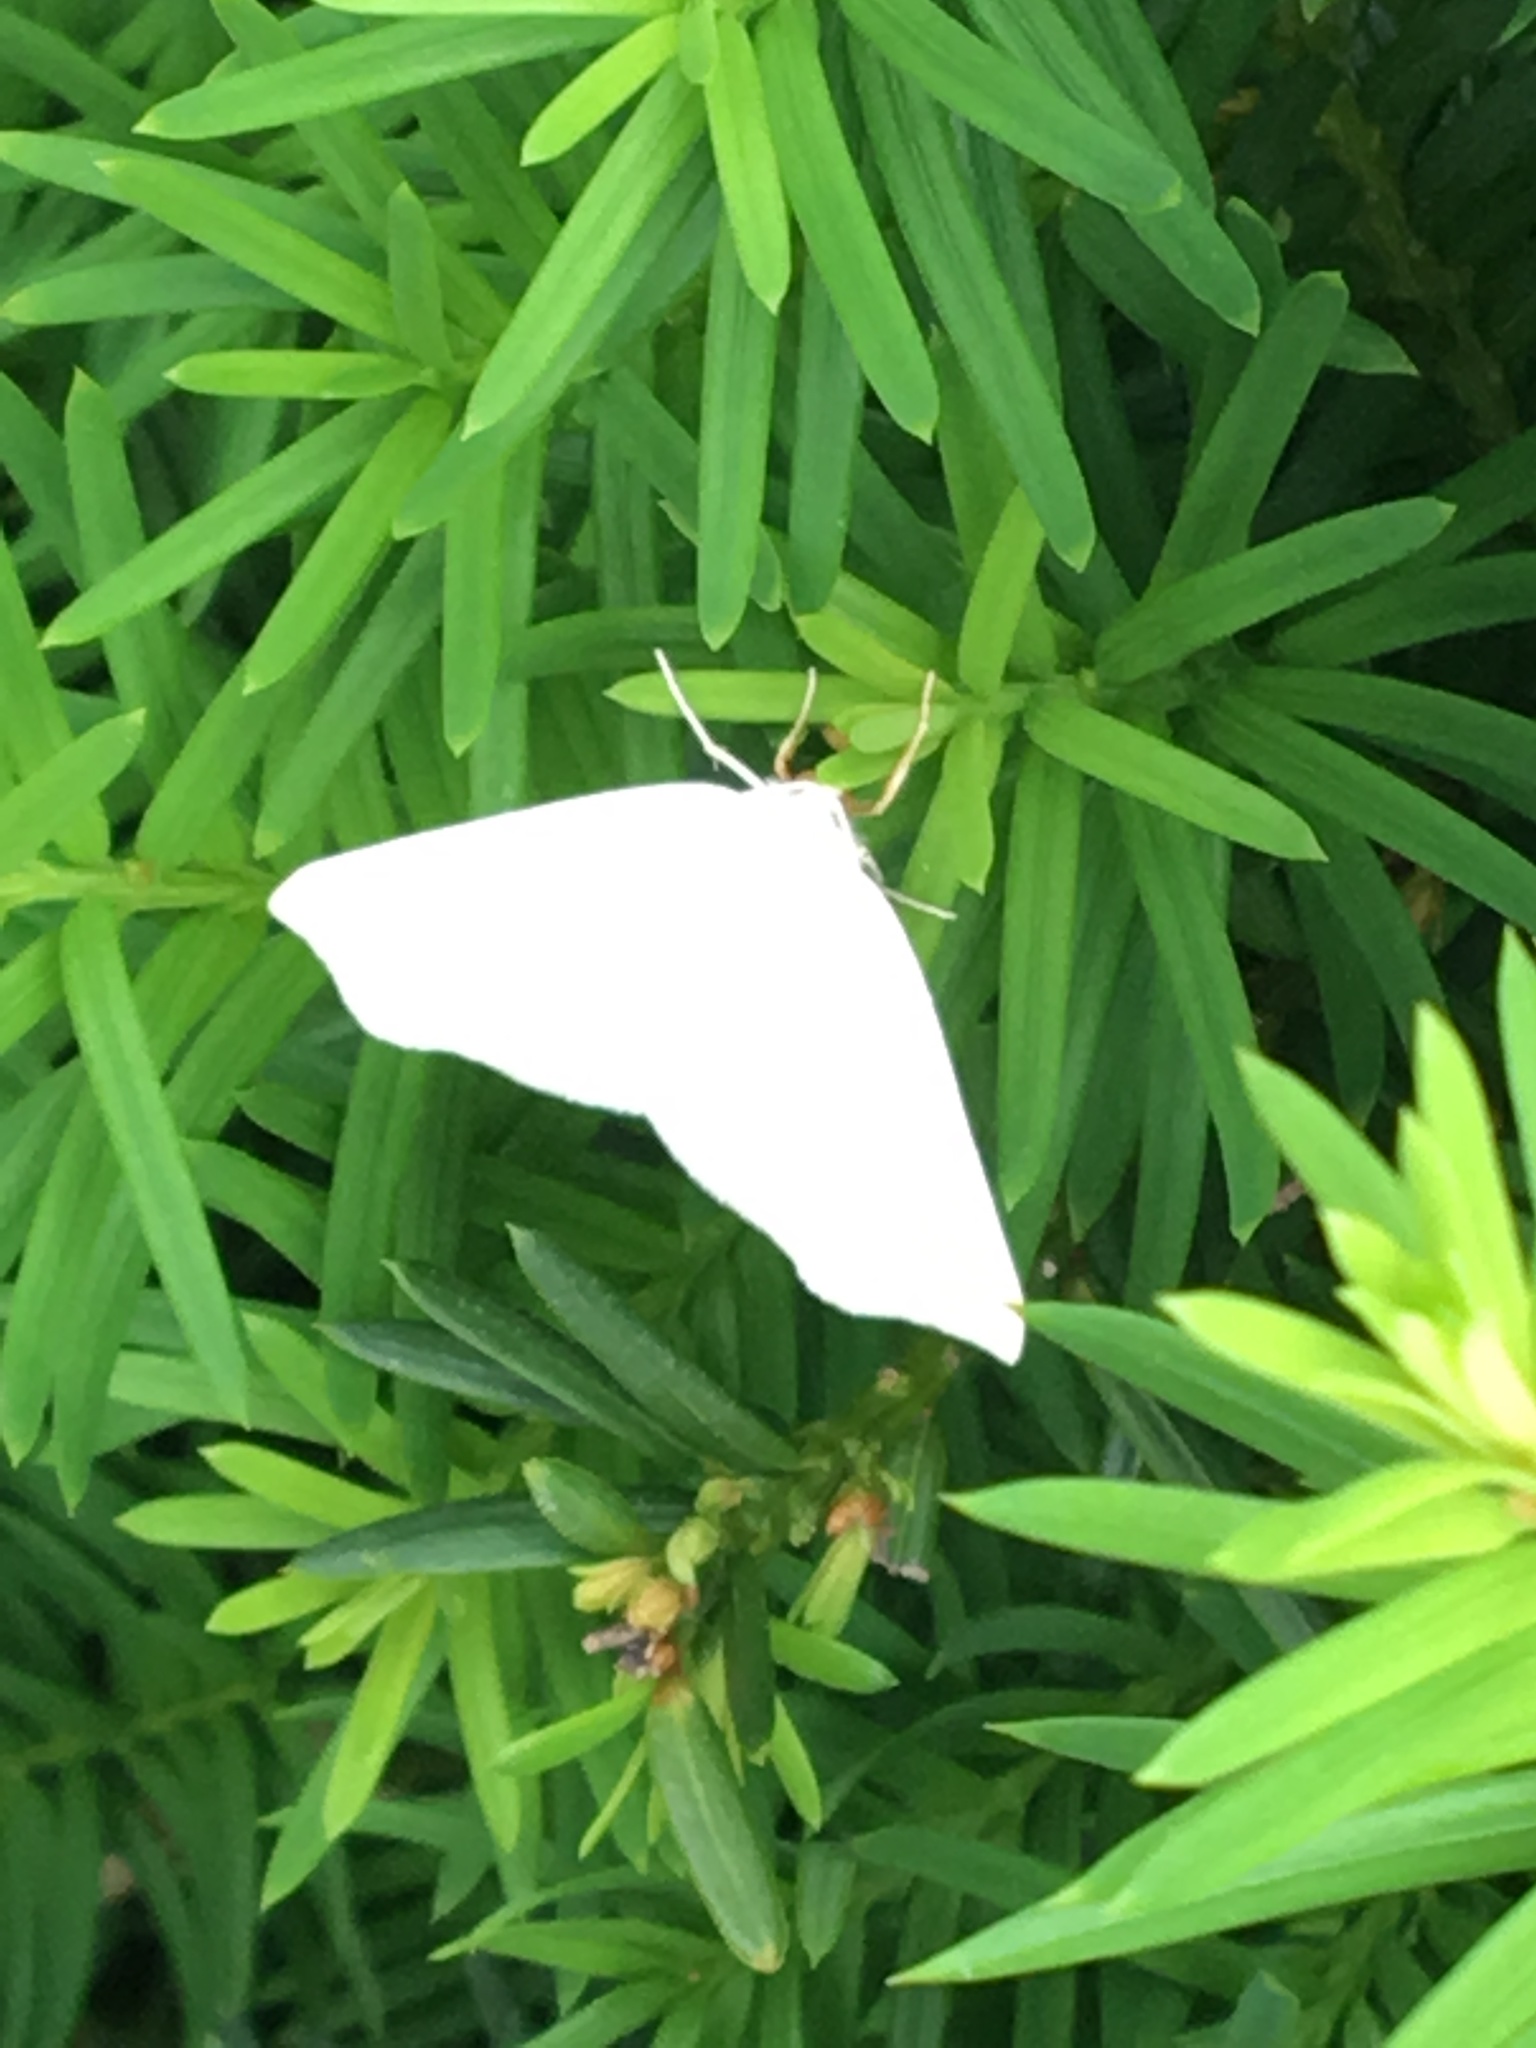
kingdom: Animalia
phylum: Arthropoda
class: Insecta
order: Lepidoptera
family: Geometridae
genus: Tetracis
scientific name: Tetracis cachexiata
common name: White slant-line
